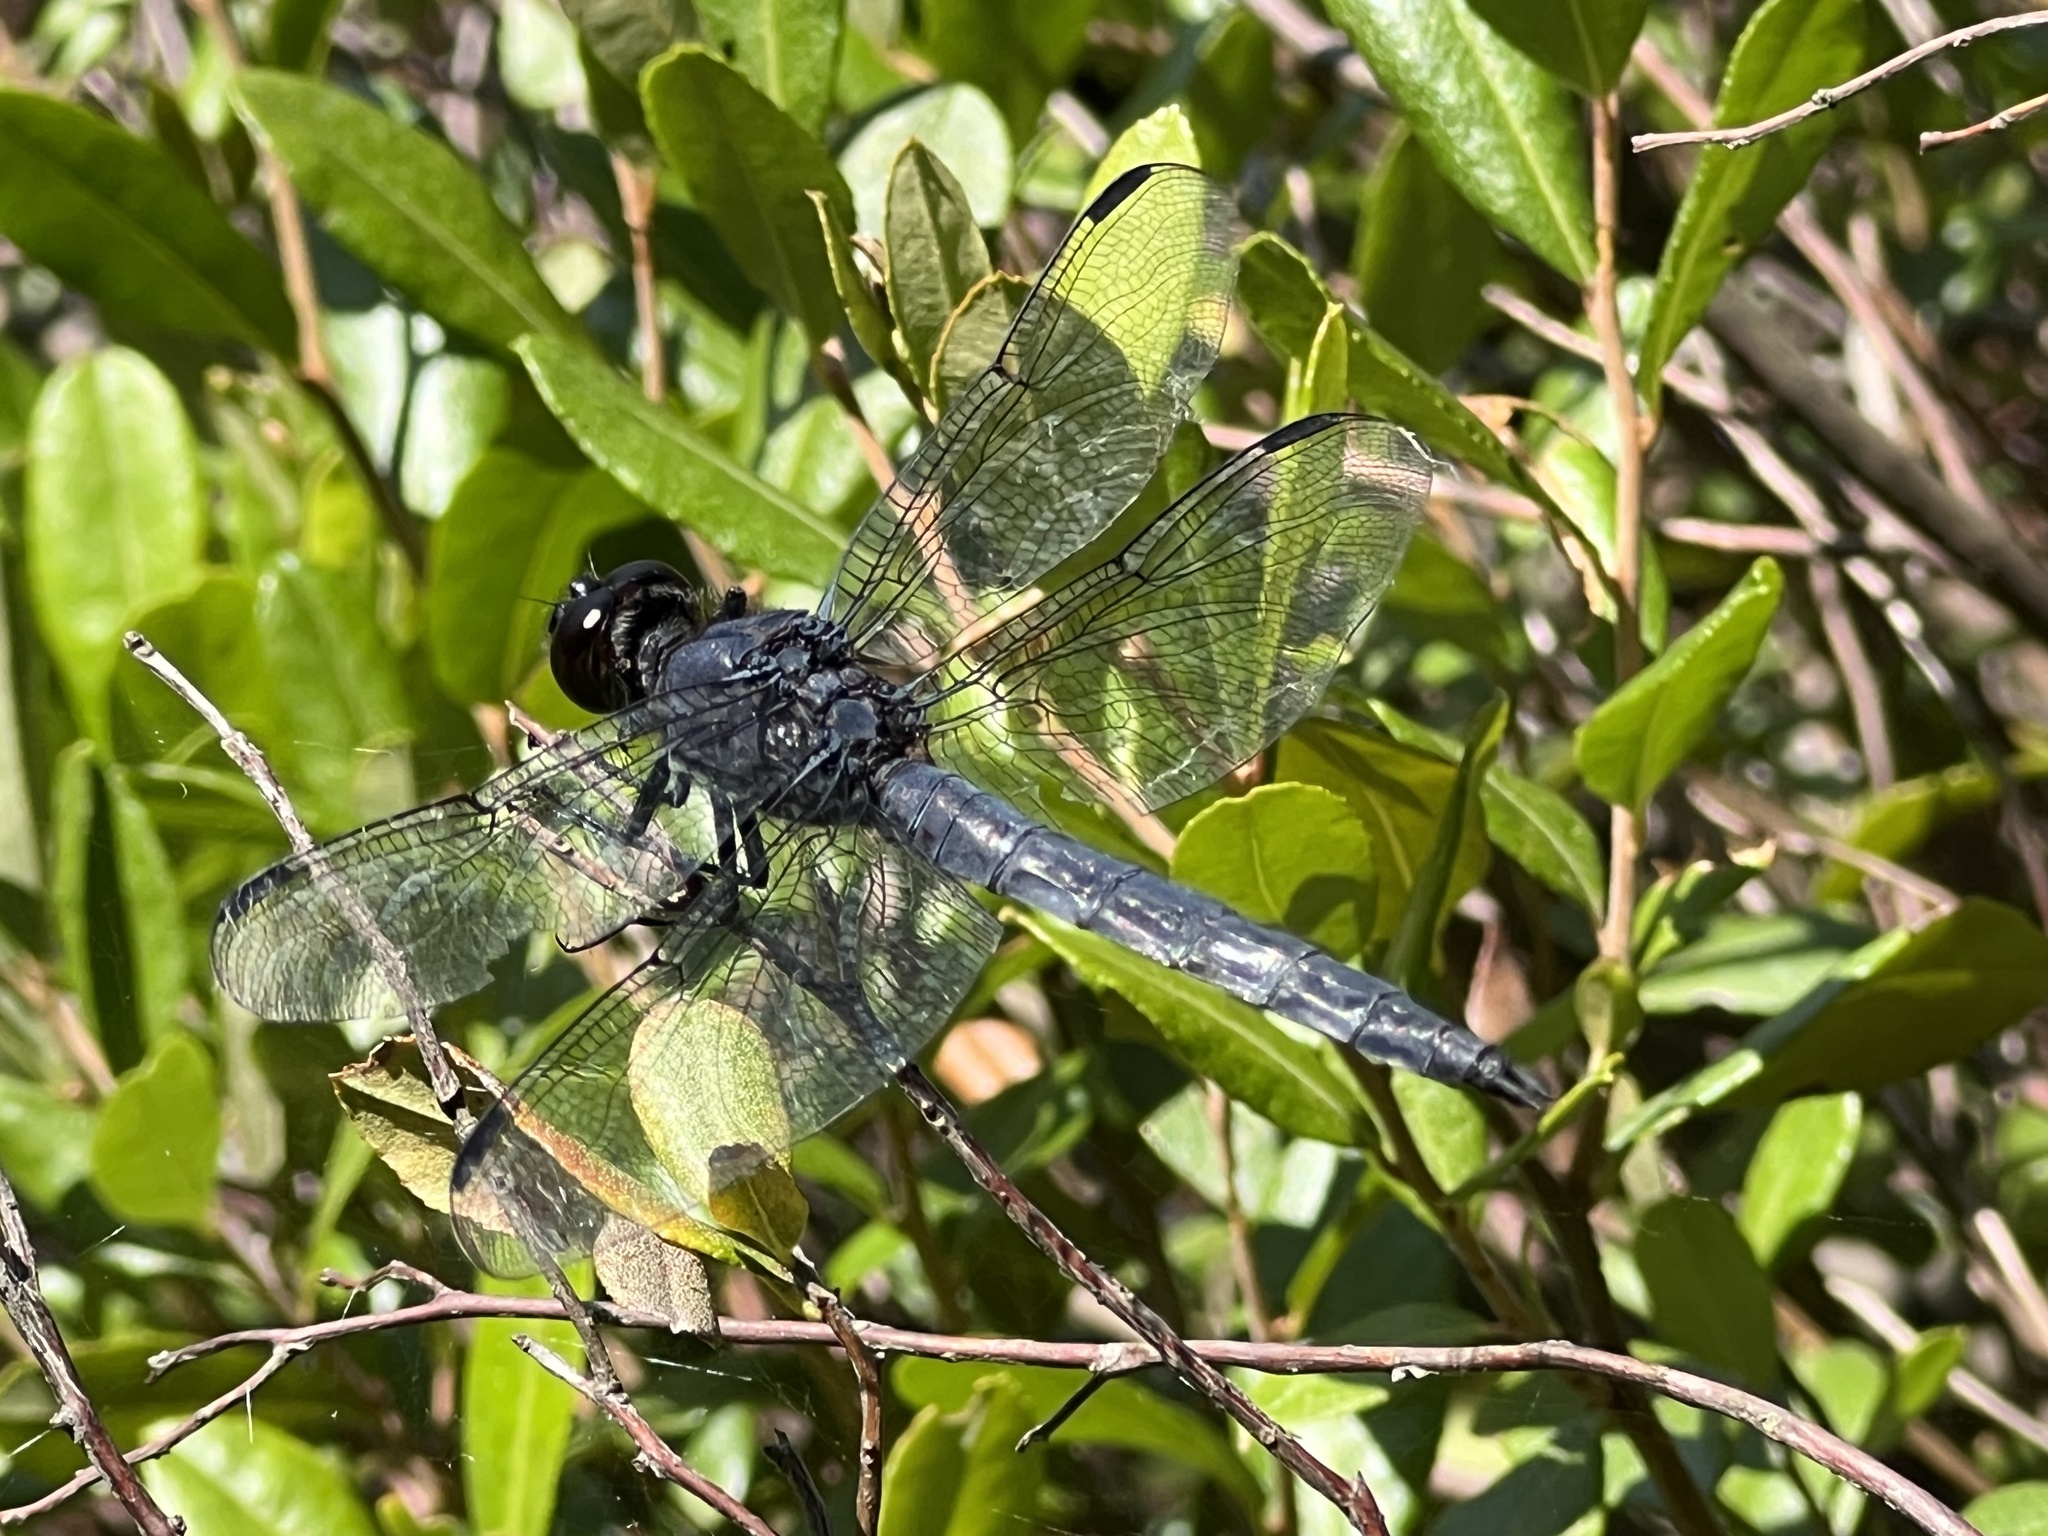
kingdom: Animalia
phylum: Arthropoda
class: Insecta
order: Odonata
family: Libellulidae
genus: Libellula
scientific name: Libellula incesta
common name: Slaty skimmer
